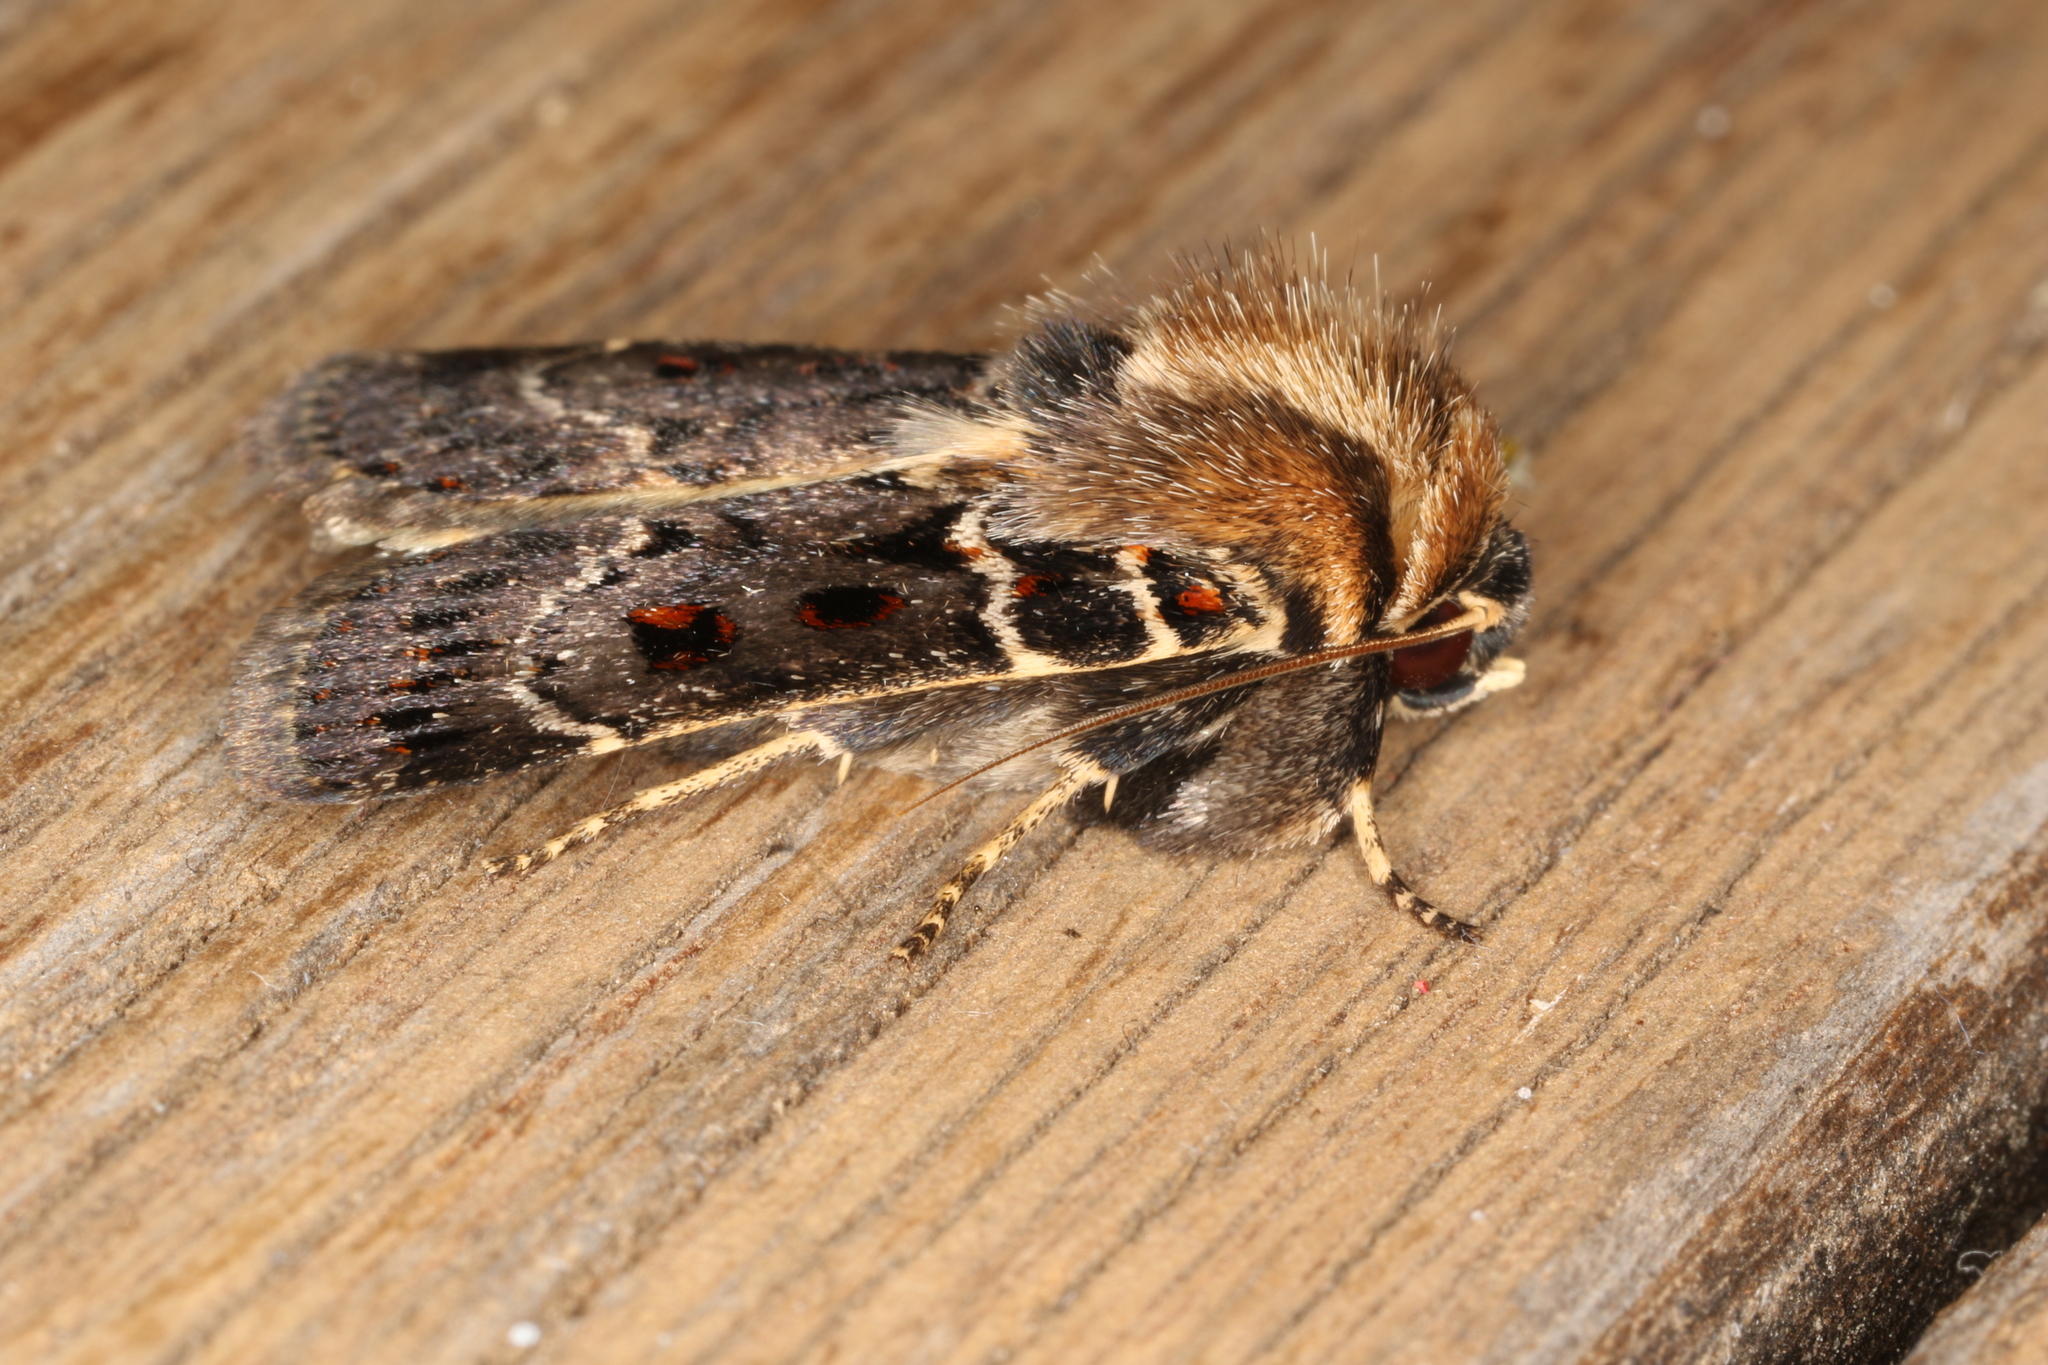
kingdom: Animalia
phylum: Arthropoda
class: Insecta
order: Lepidoptera
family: Noctuidae
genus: Proteuxoa
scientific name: Proteuxoa sanguinipuncta
